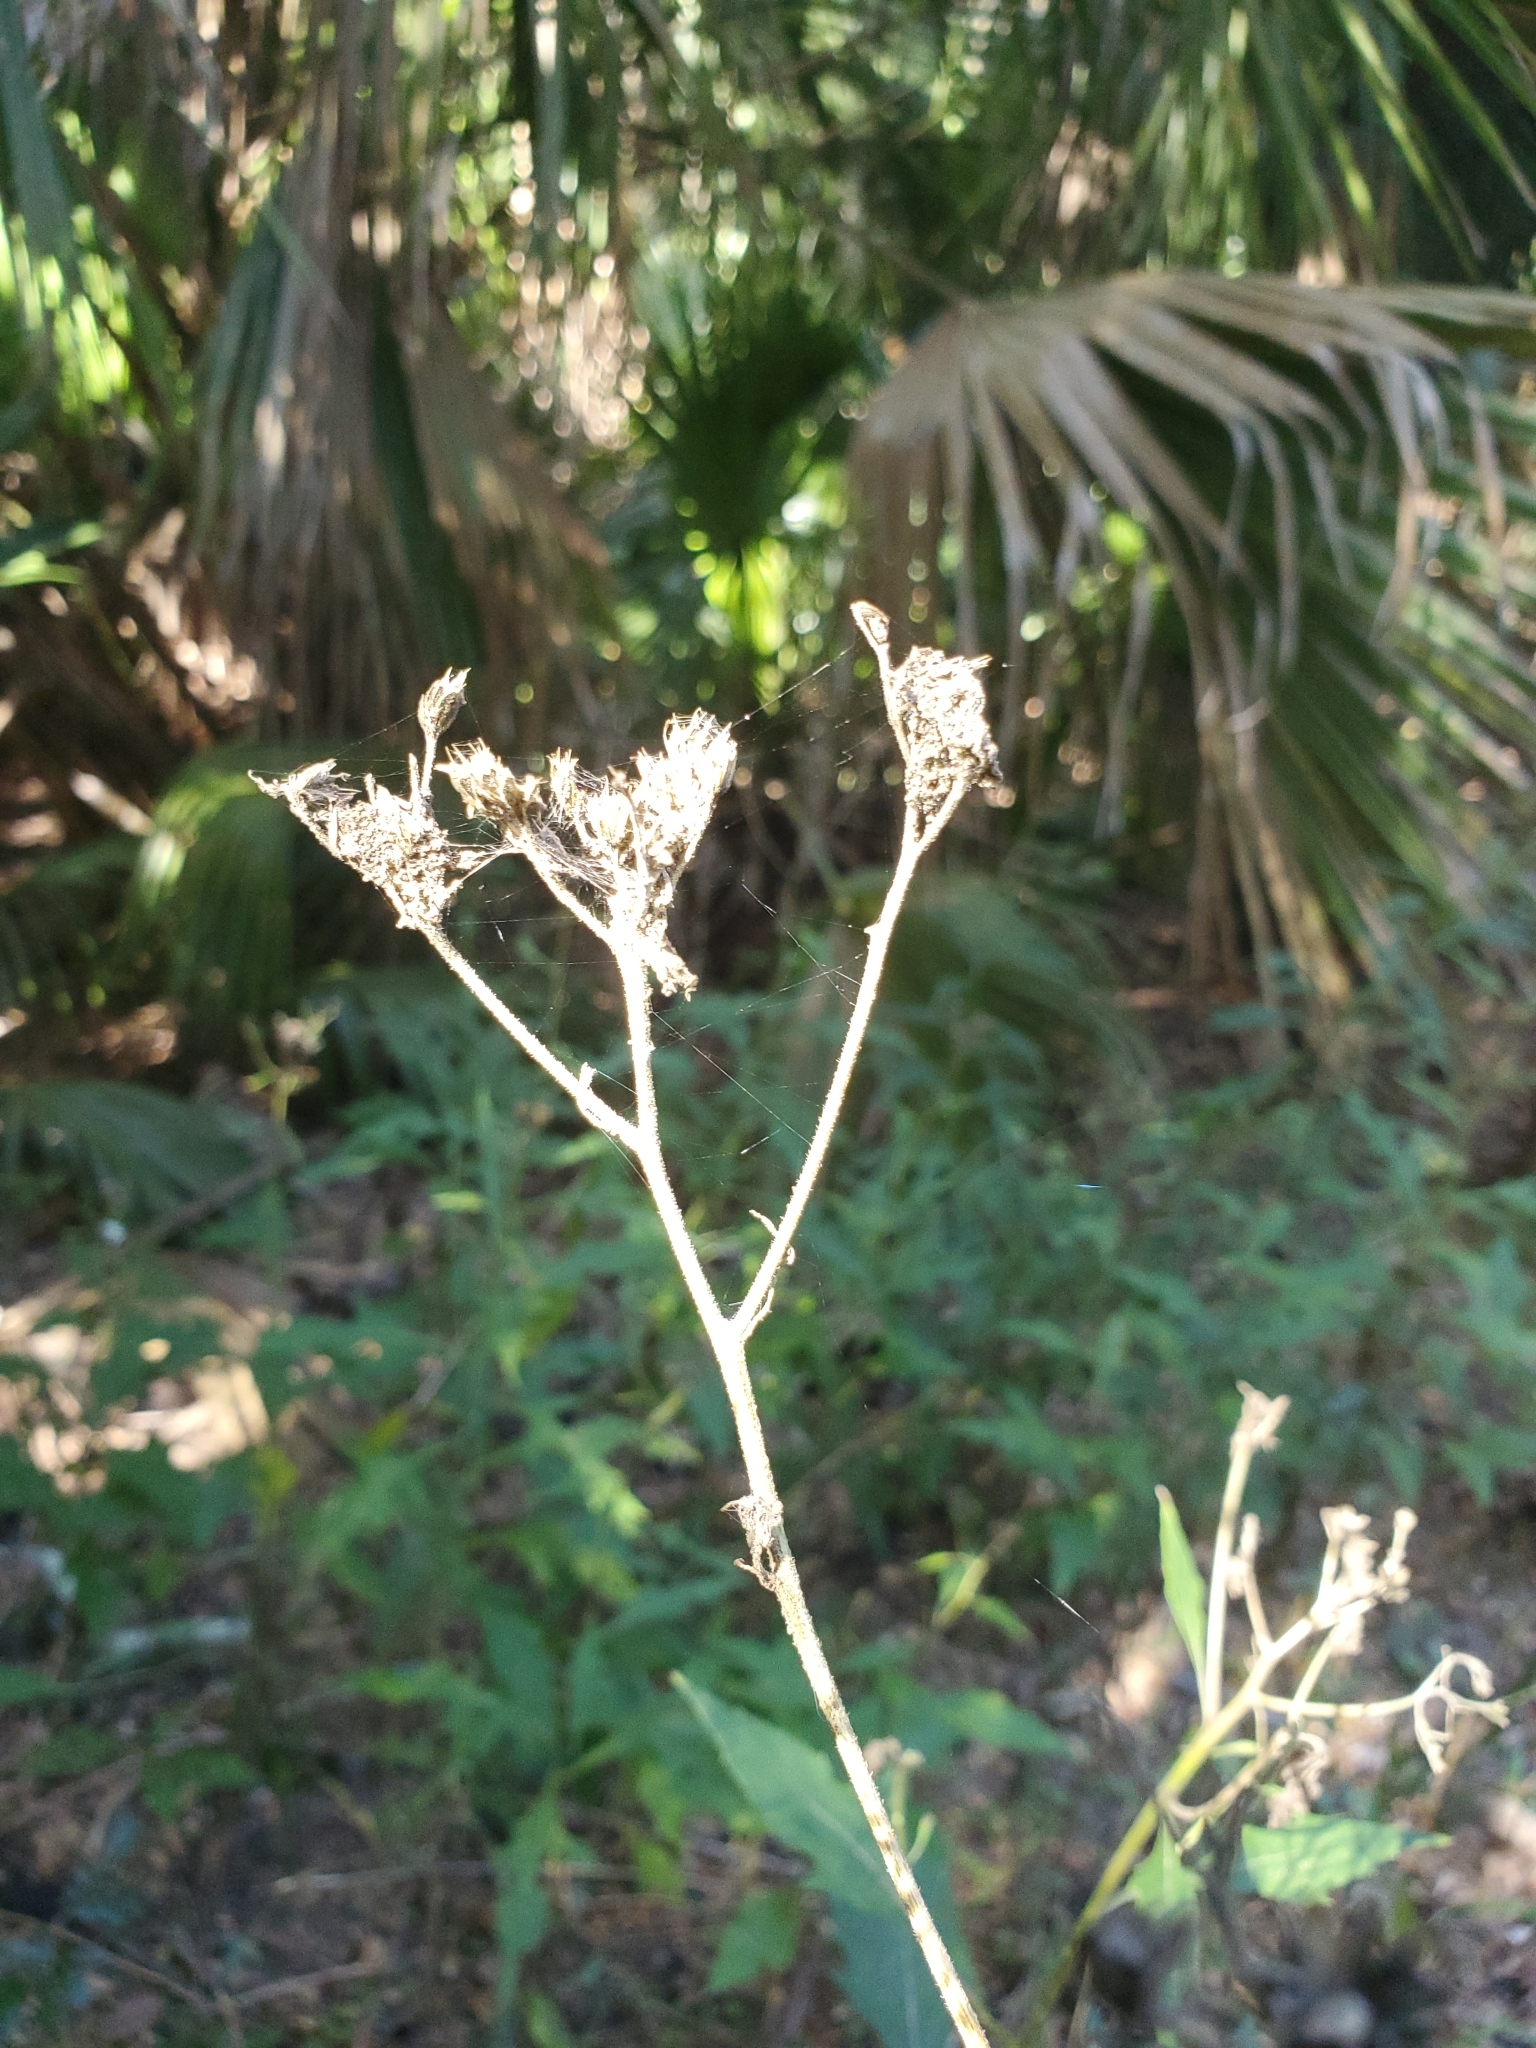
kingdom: Plantae
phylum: Tracheophyta
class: Magnoliopsida
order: Asterales
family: Asteraceae
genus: Verbesina
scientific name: Verbesina virginica
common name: Frostweed
